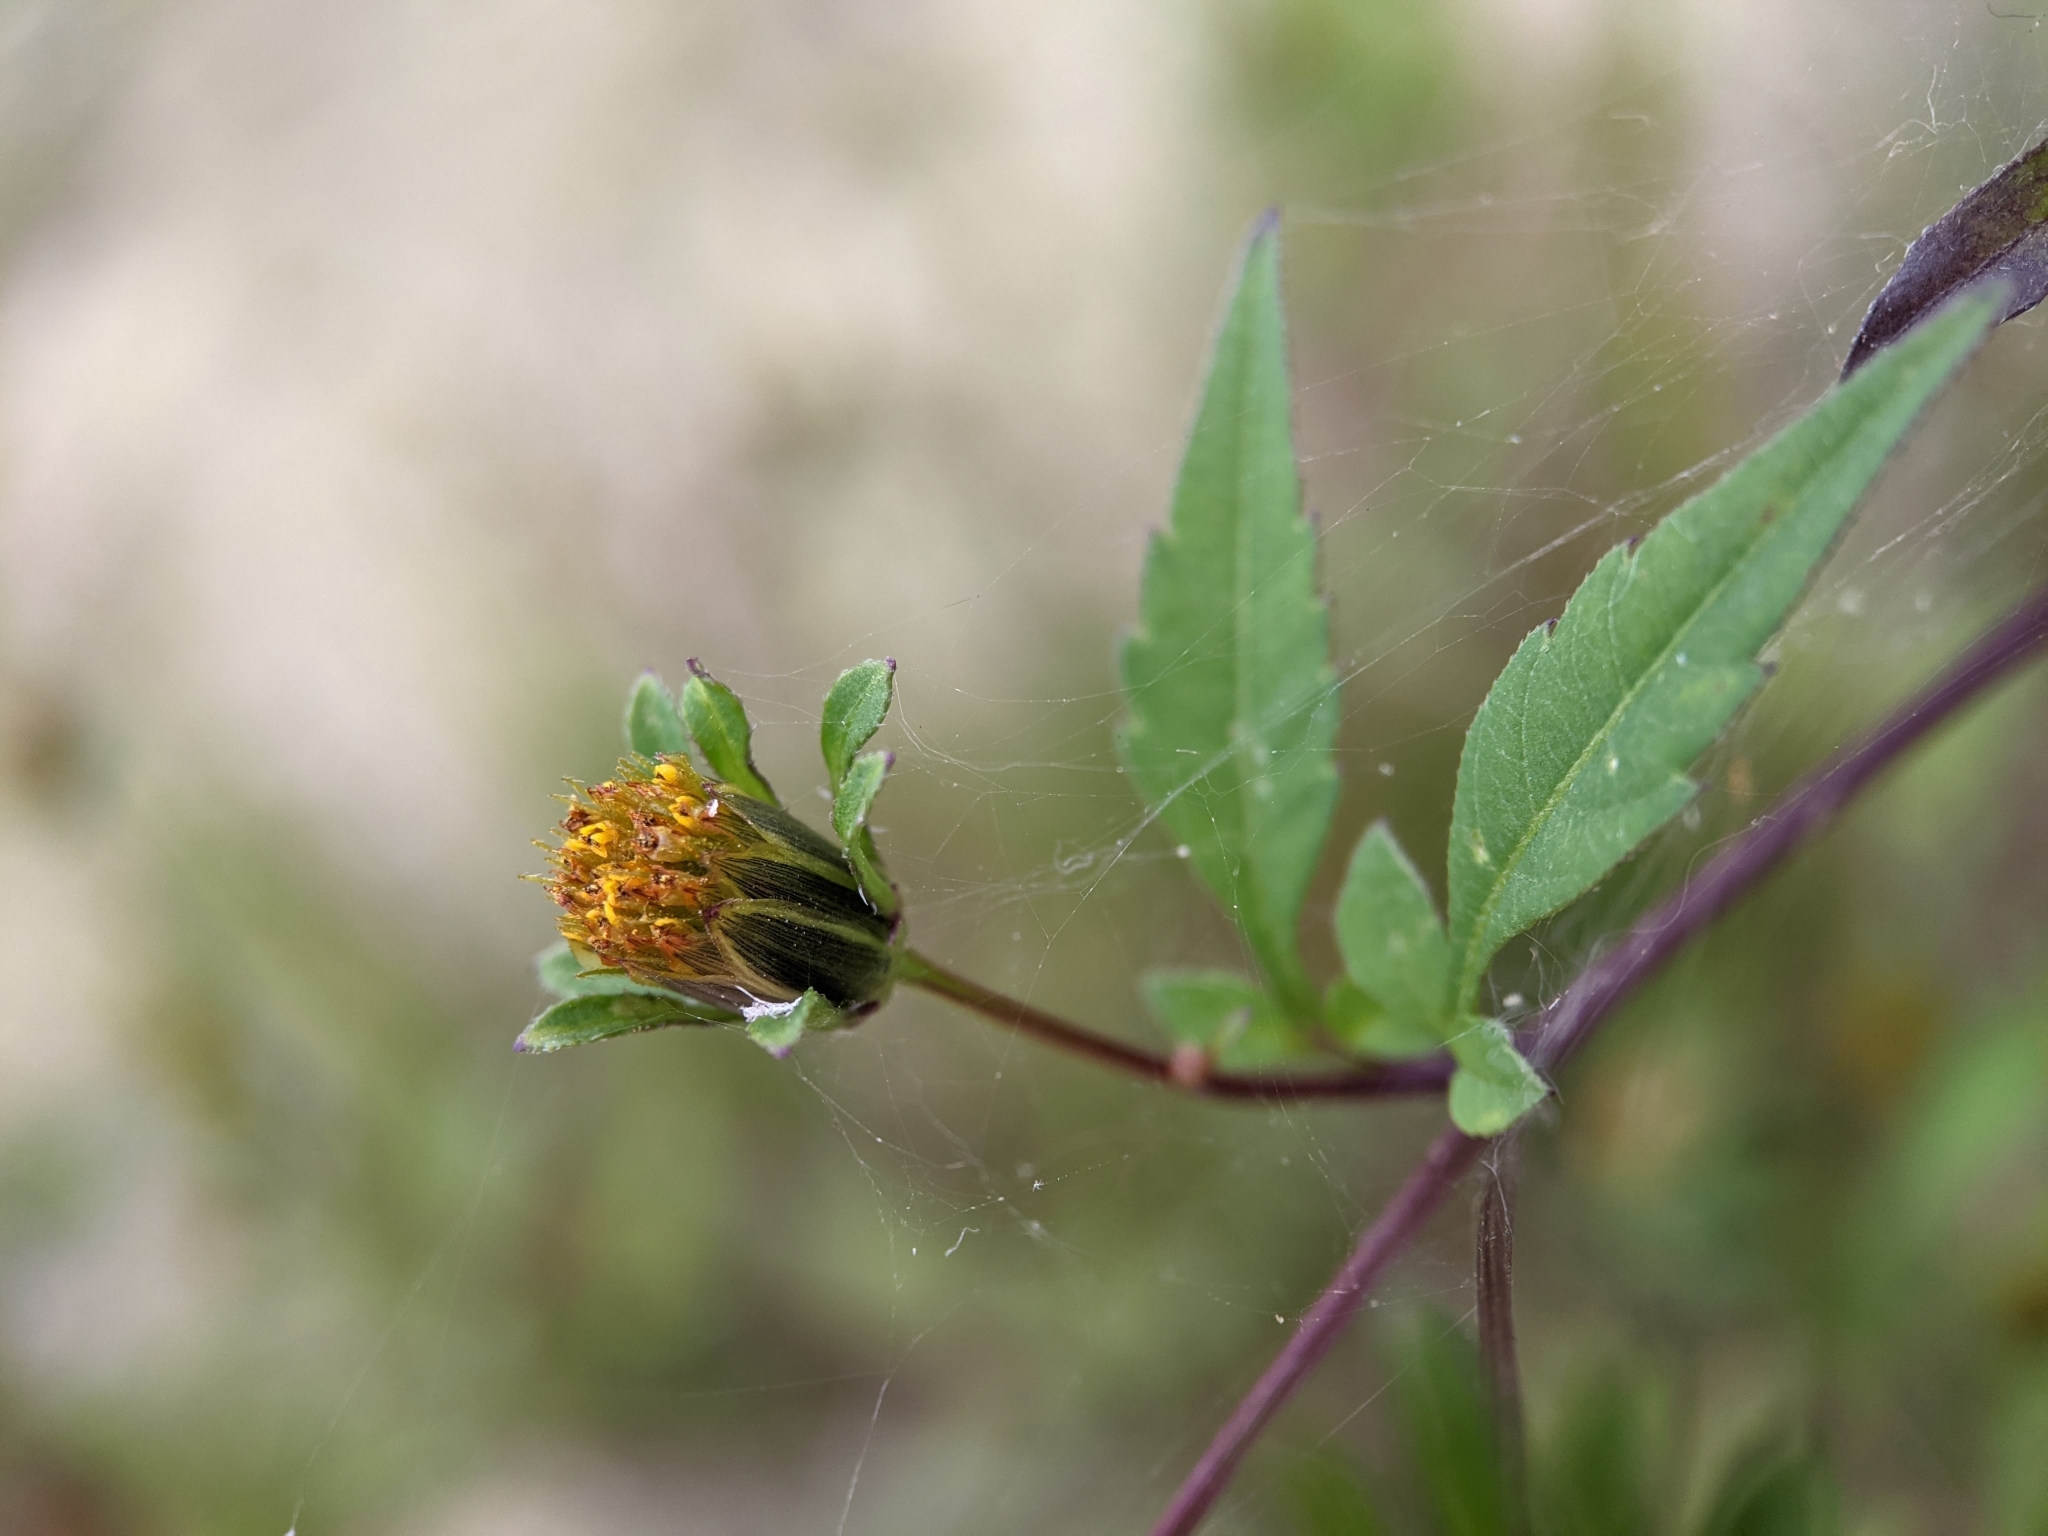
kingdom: Plantae
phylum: Tracheophyta
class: Magnoliopsida
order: Asterales
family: Asteraceae
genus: Bidens
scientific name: Bidens frondosa
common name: Beggarticks
